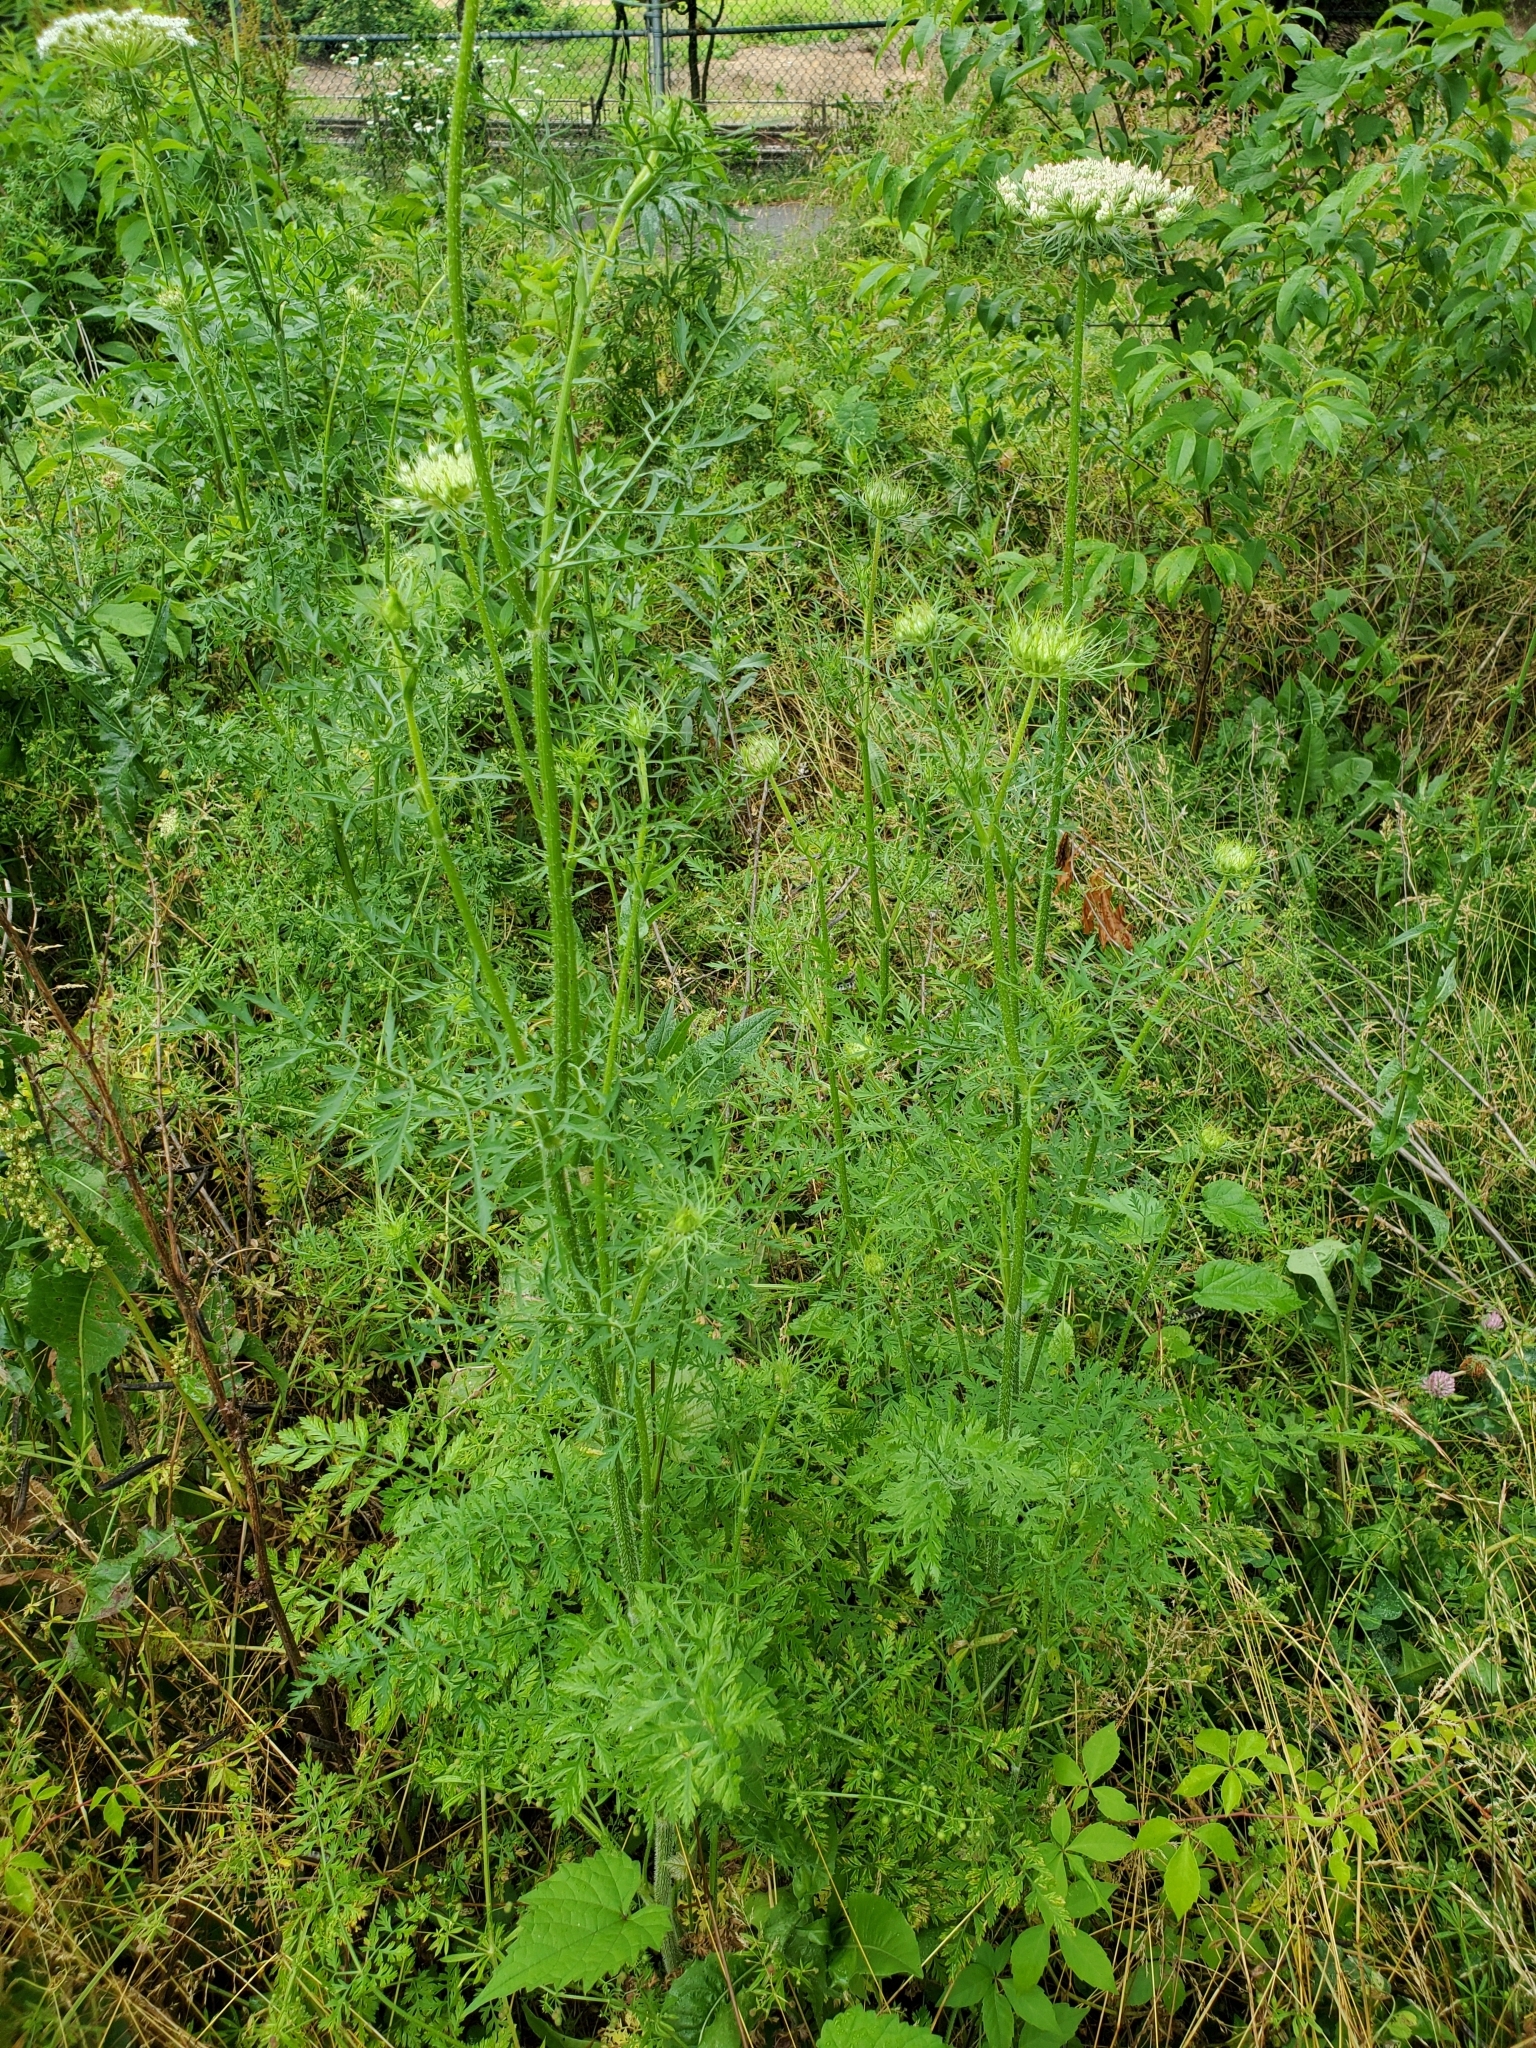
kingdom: Plantae
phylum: Tracheophyta
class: Magnoliopsida
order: Apiales
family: Apiaceae
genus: Daucus
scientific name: Daucus carota
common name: Wild carrot
